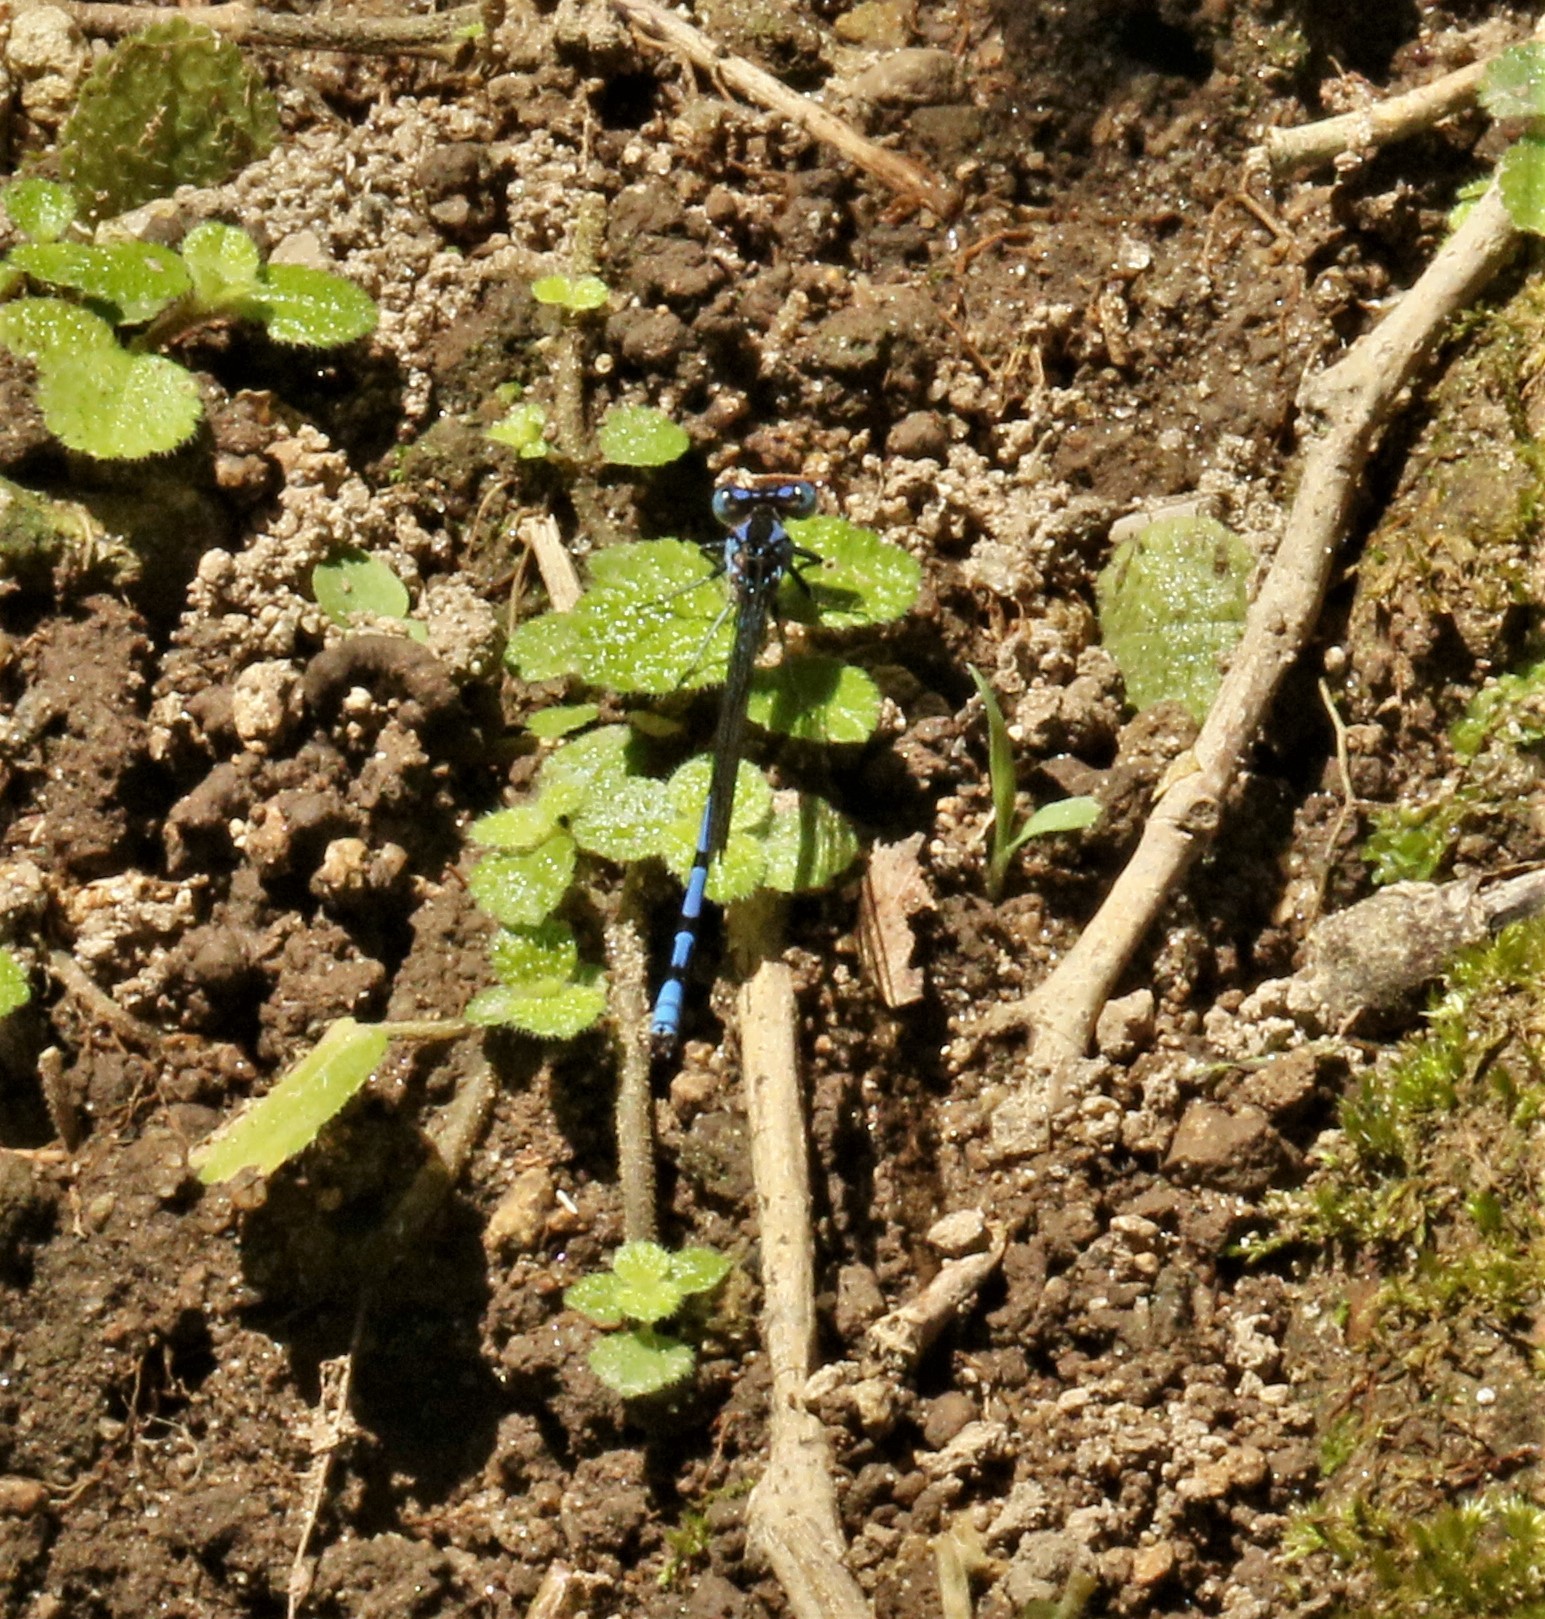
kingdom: Animalia
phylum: Arthropoda
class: Insecta
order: Odonata
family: Coenagrionidae
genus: Argia
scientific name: Argia elongata
